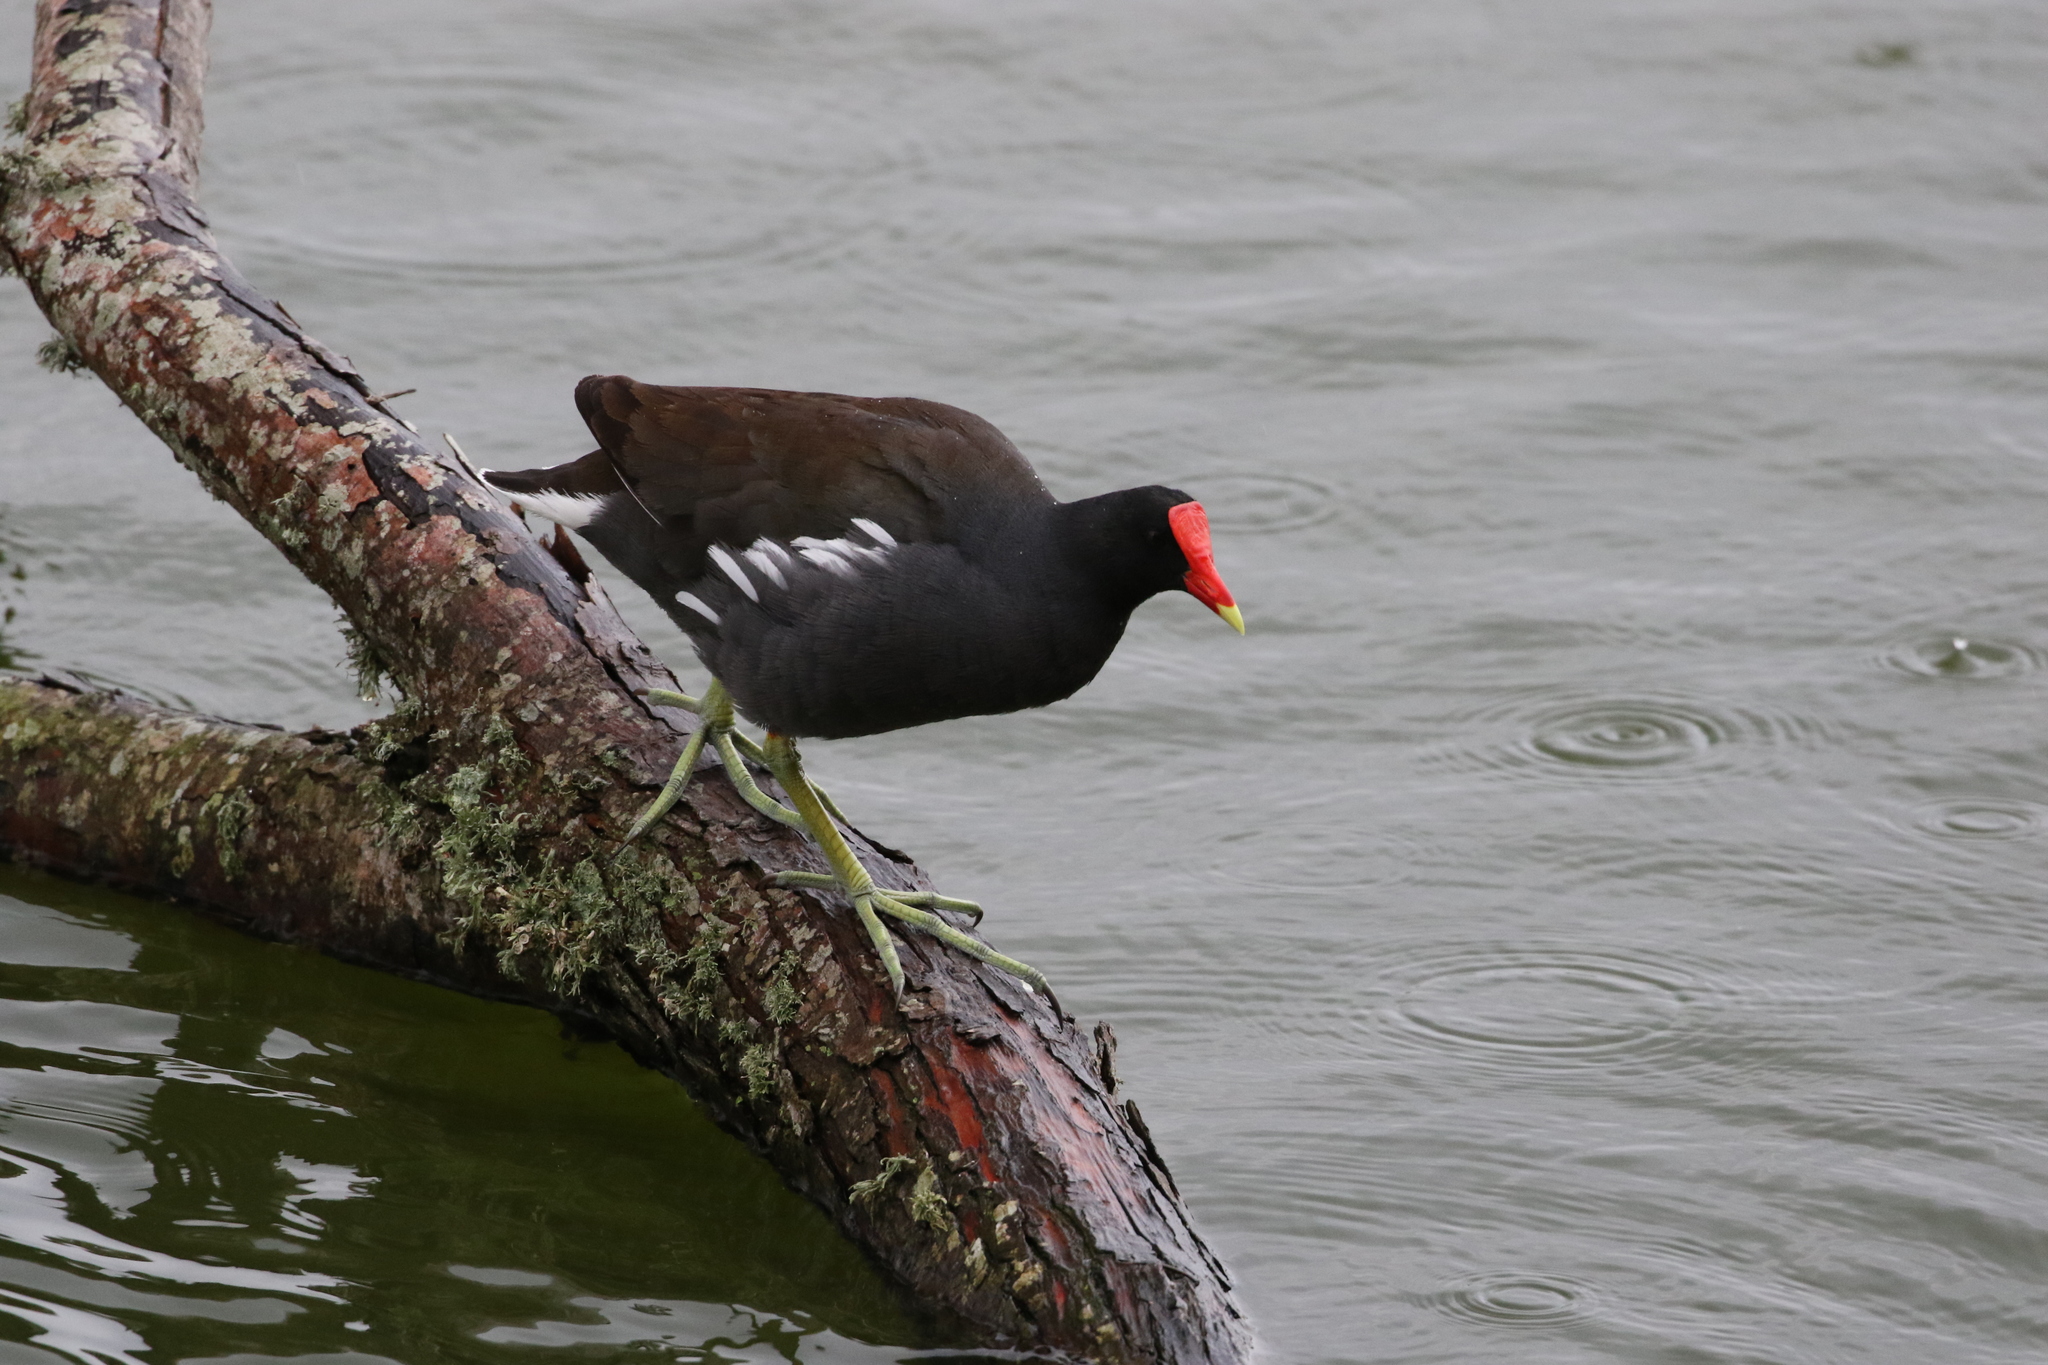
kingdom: Animalia
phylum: Chordata
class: Aves
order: Gruiformes
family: Rallidae
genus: Gallinula
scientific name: Gallinula chloropus
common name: Common moorhen
